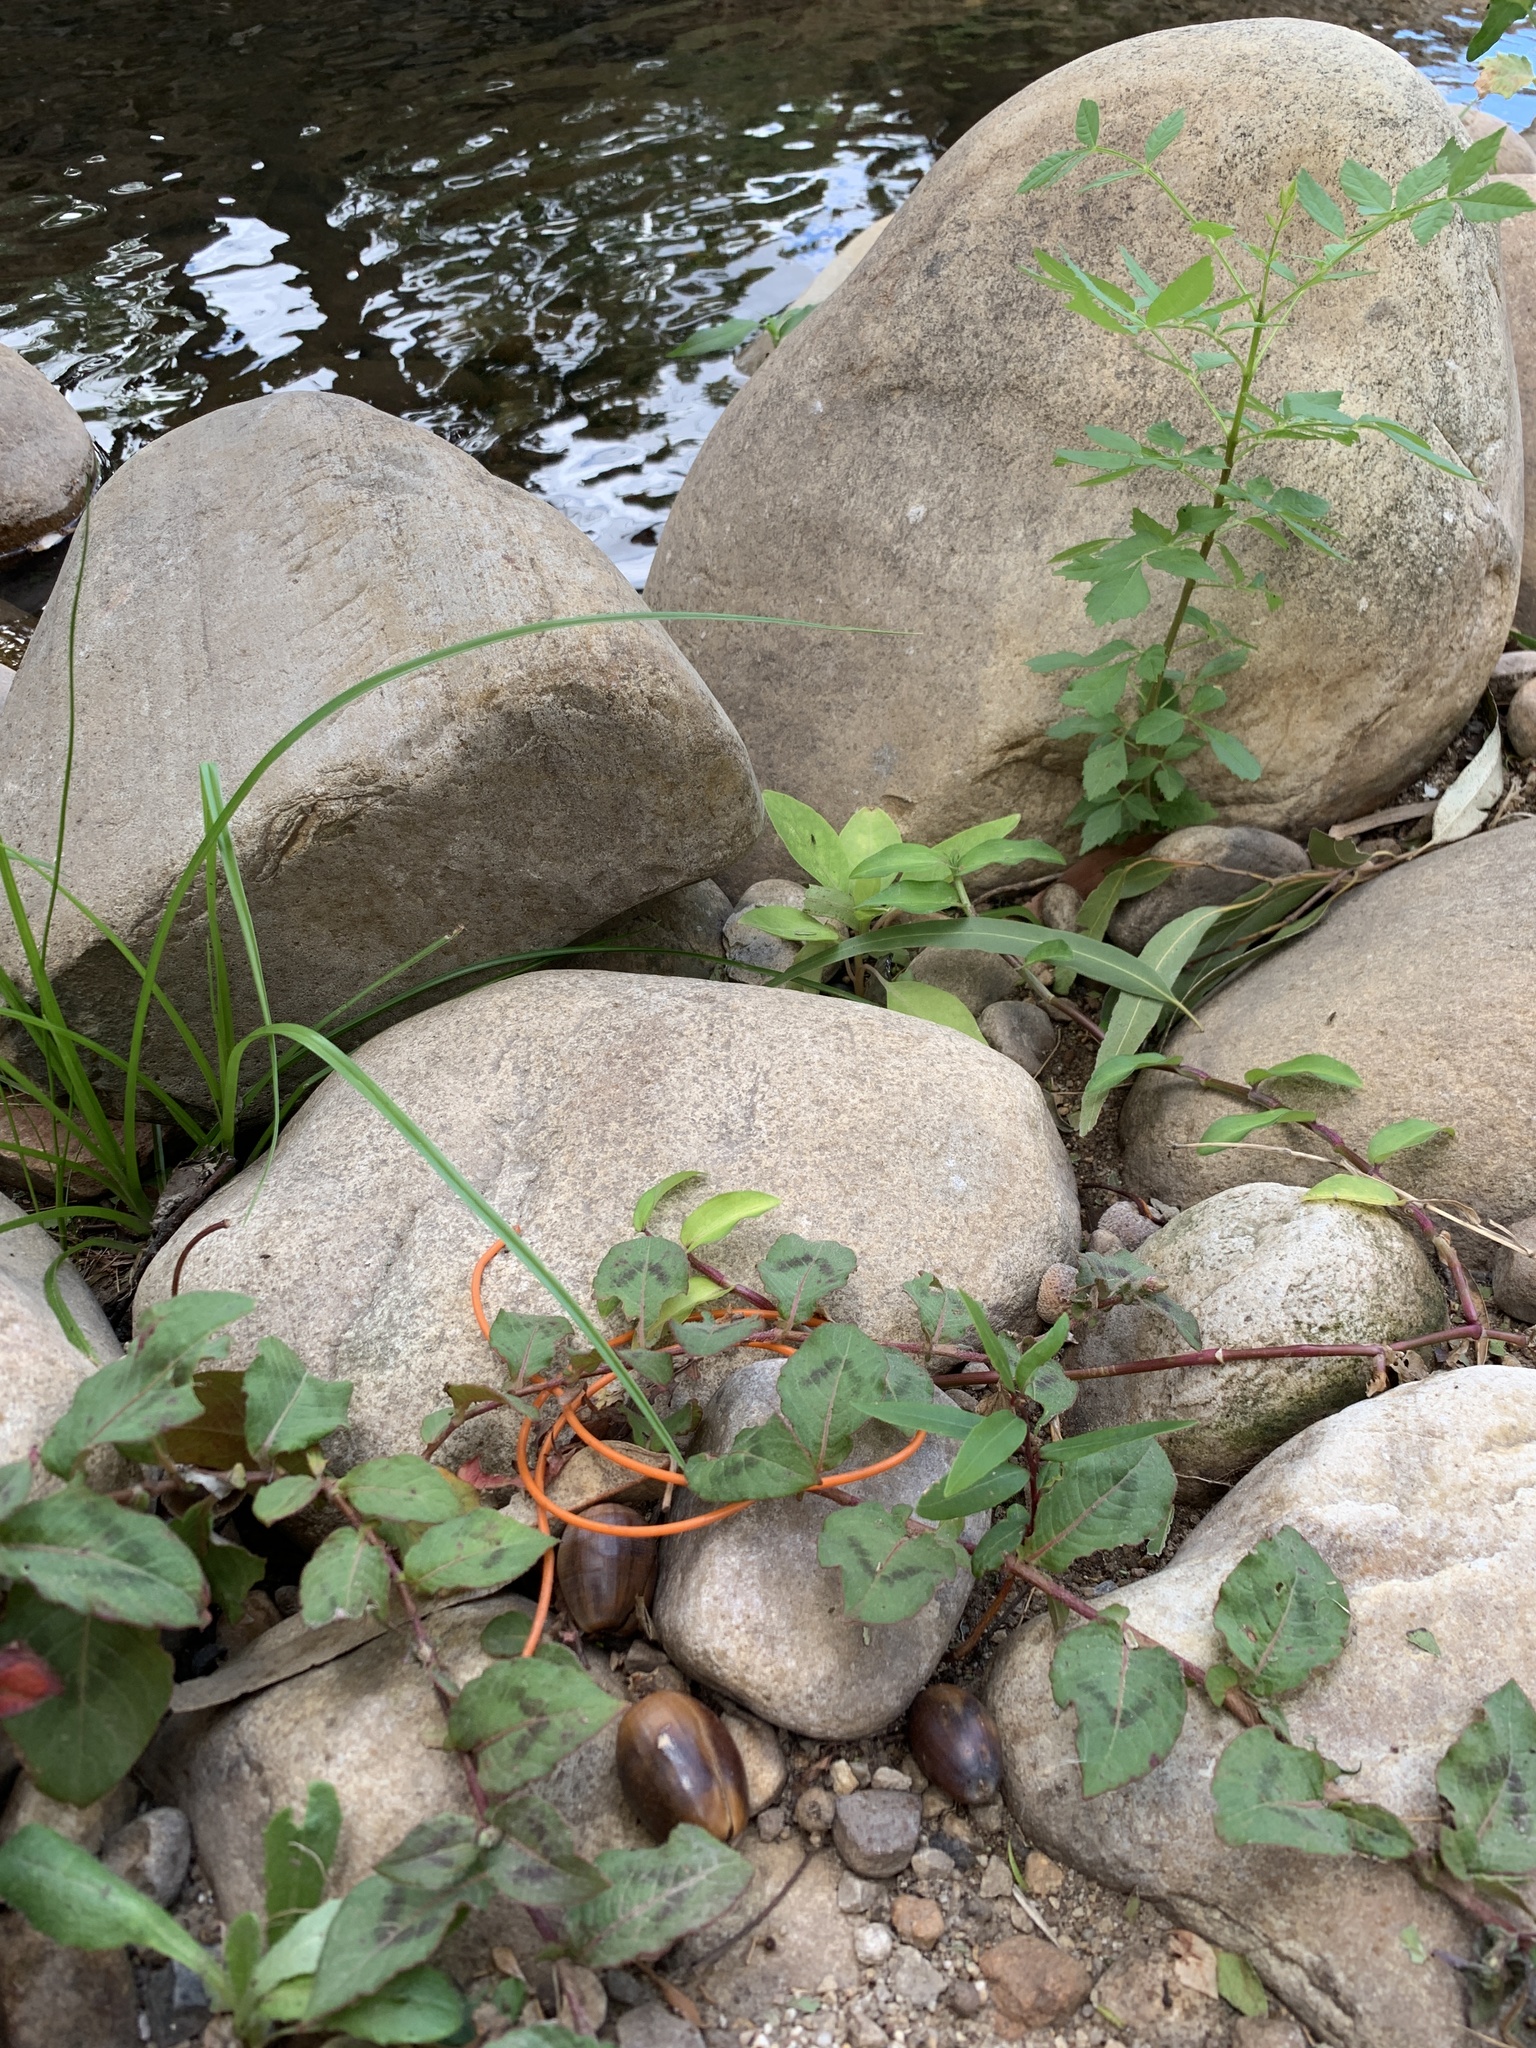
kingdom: Plantae
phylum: Tracheophyta
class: Magnoliopsida
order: Caryophyllales
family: Polygonaceae
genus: Persicaria
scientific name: Persicaria capitata
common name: Pinkhead smartweed
